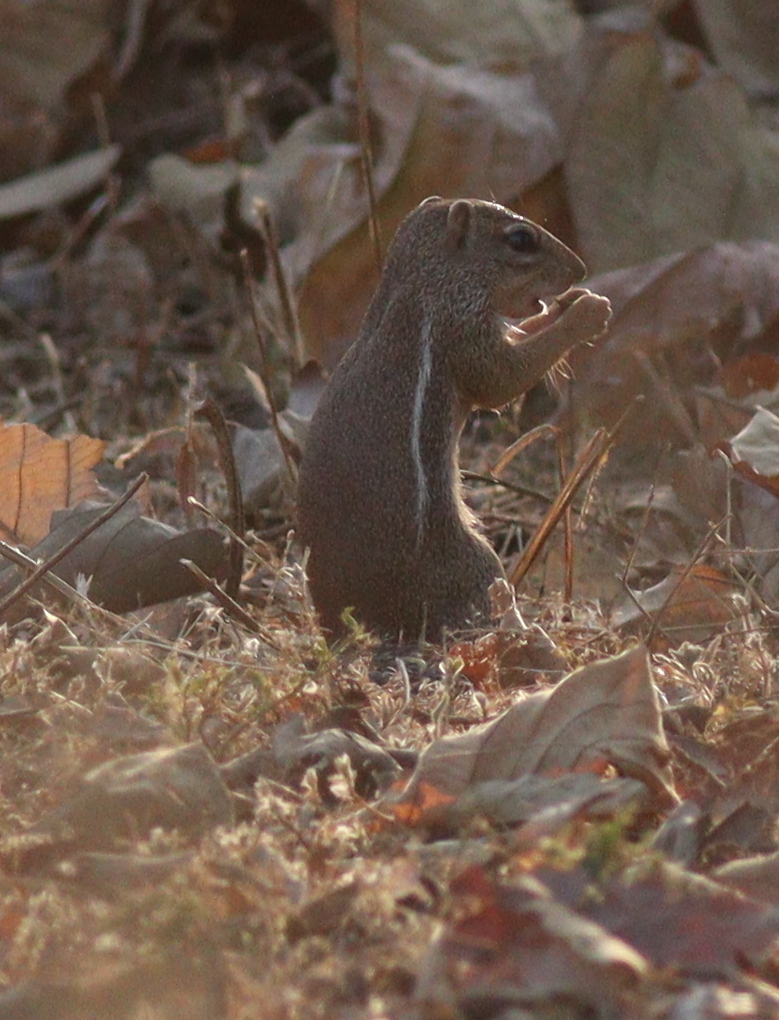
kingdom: Animalia
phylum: Chordata
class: Mammalia
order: Rodentia
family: Sciuridae
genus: Xerus
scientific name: Xerus erythropus
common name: Striped ground squirrel
